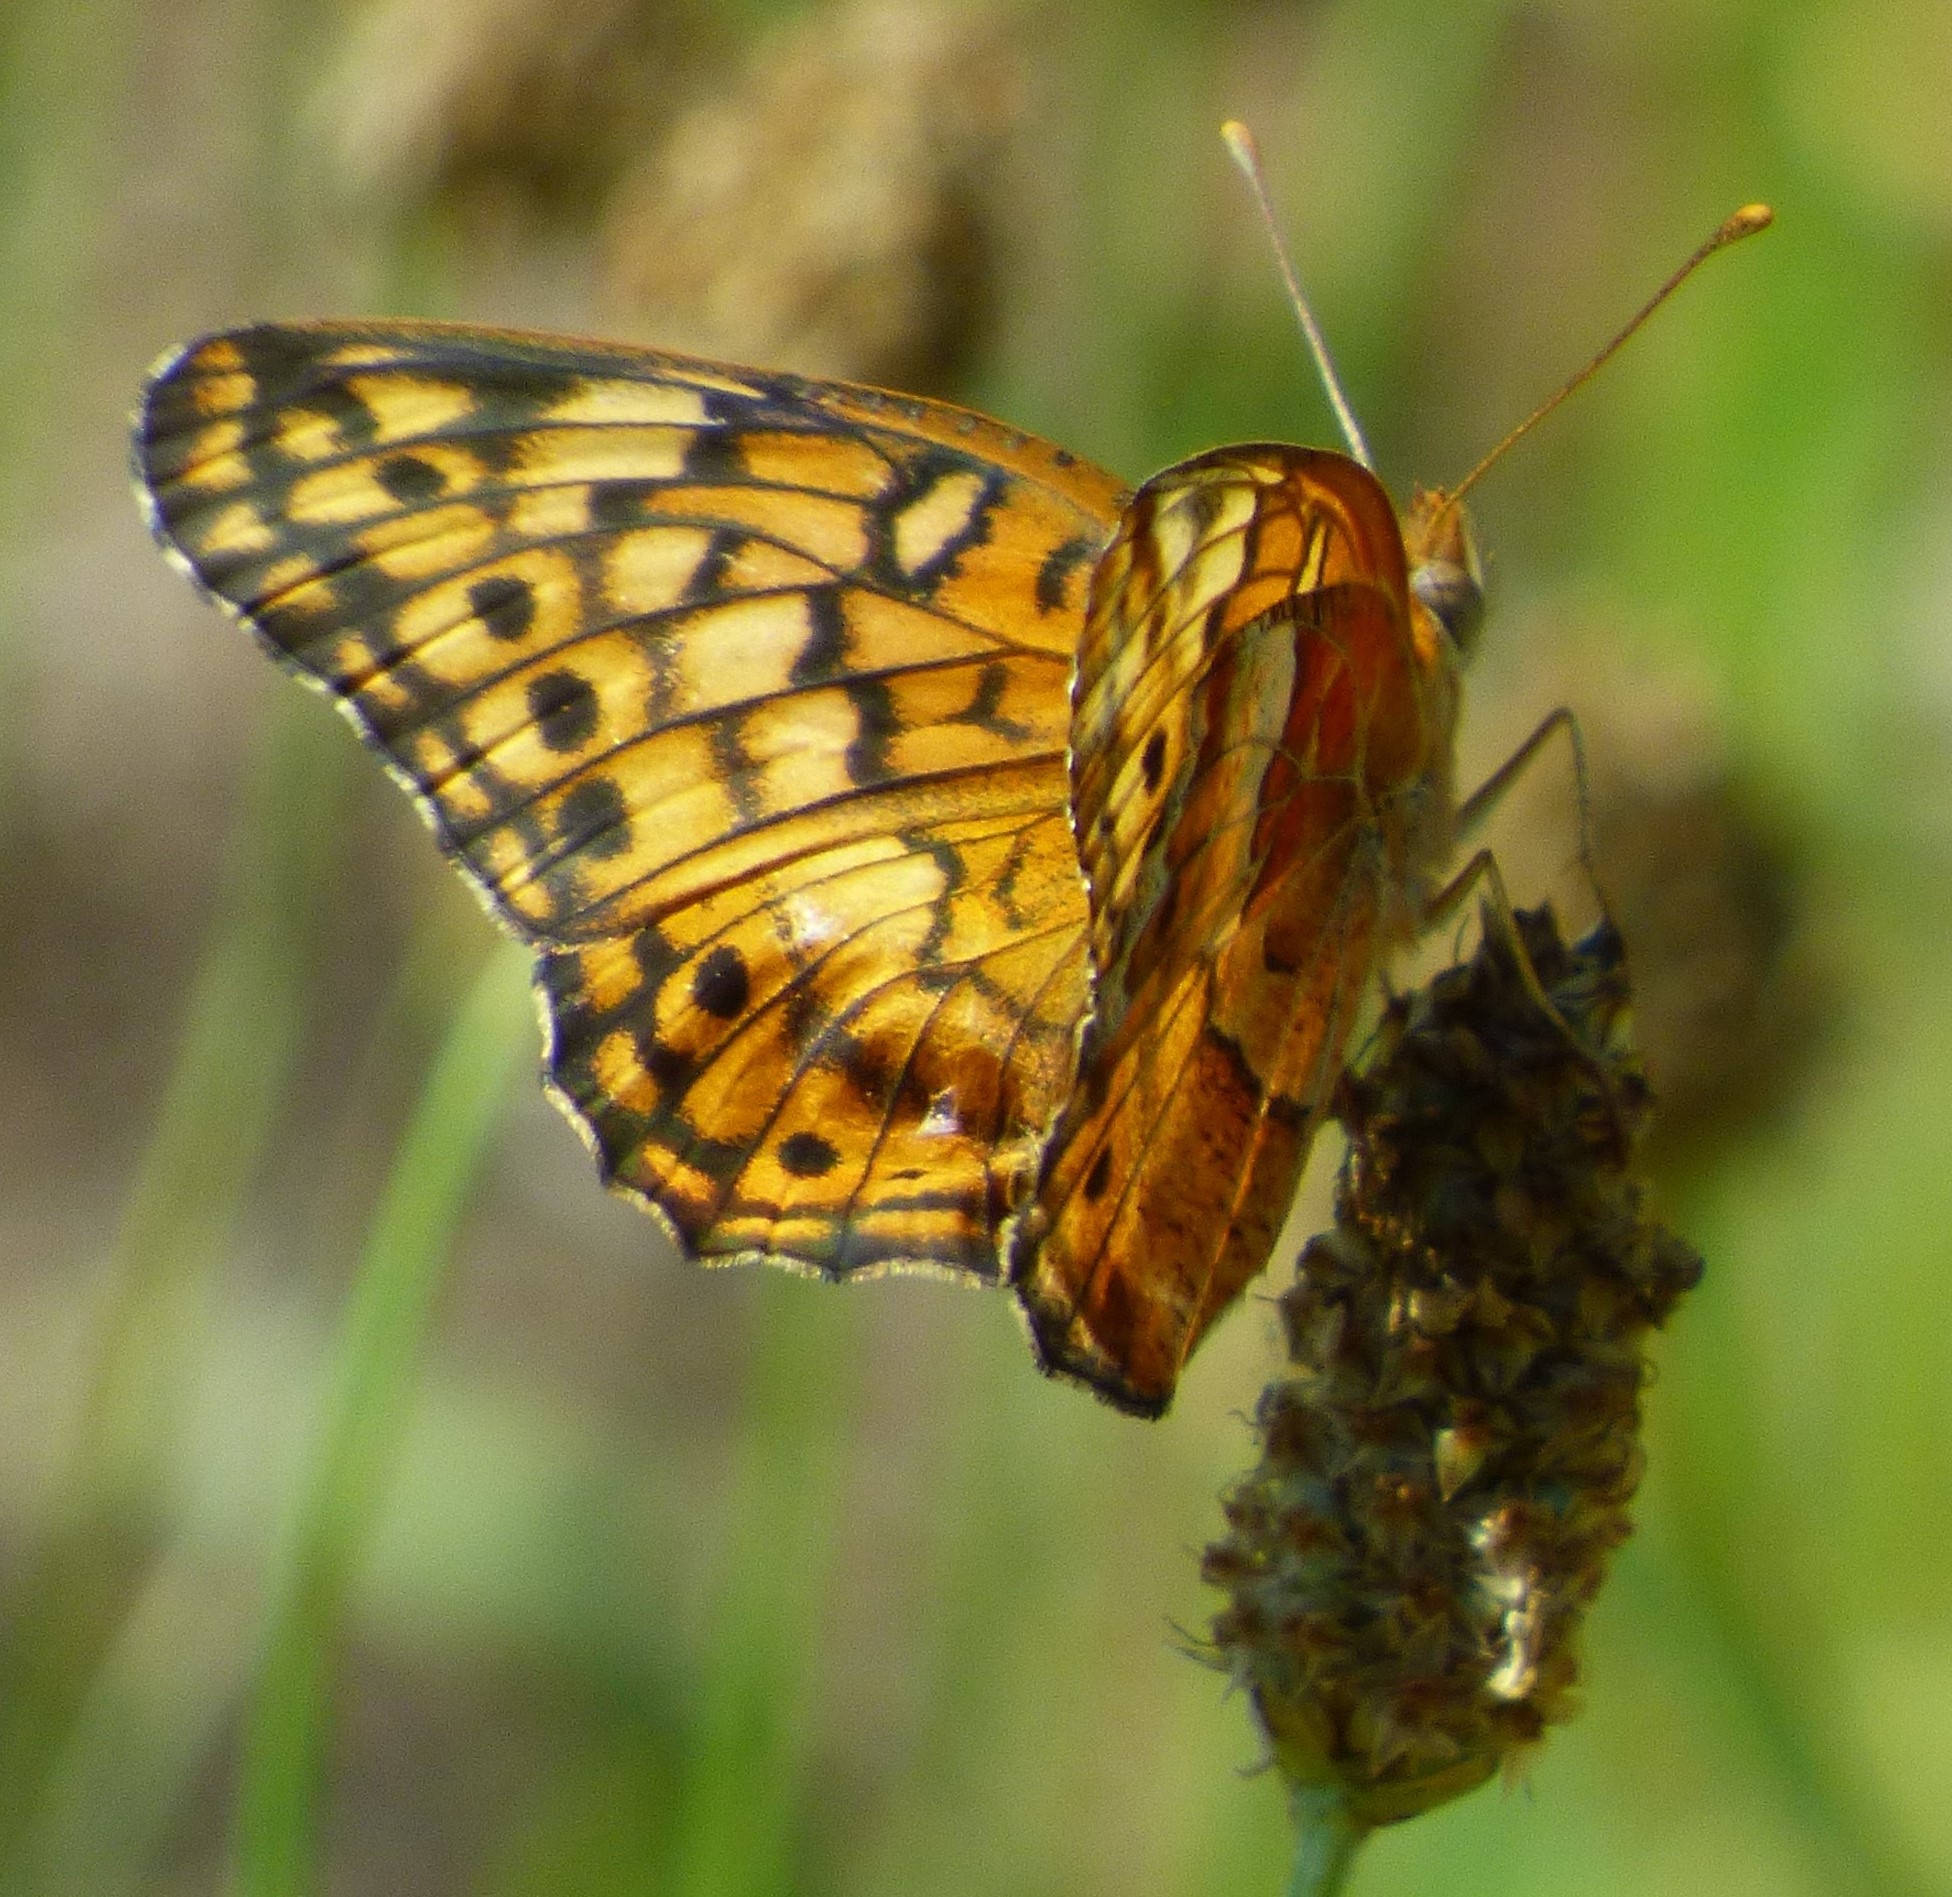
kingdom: Animalia
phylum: Arthropoda
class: Insecta
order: Lepidoptera
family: Nymphalidae
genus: Euptoieta
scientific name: Euptoieta claudia
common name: Variegated fritillary
